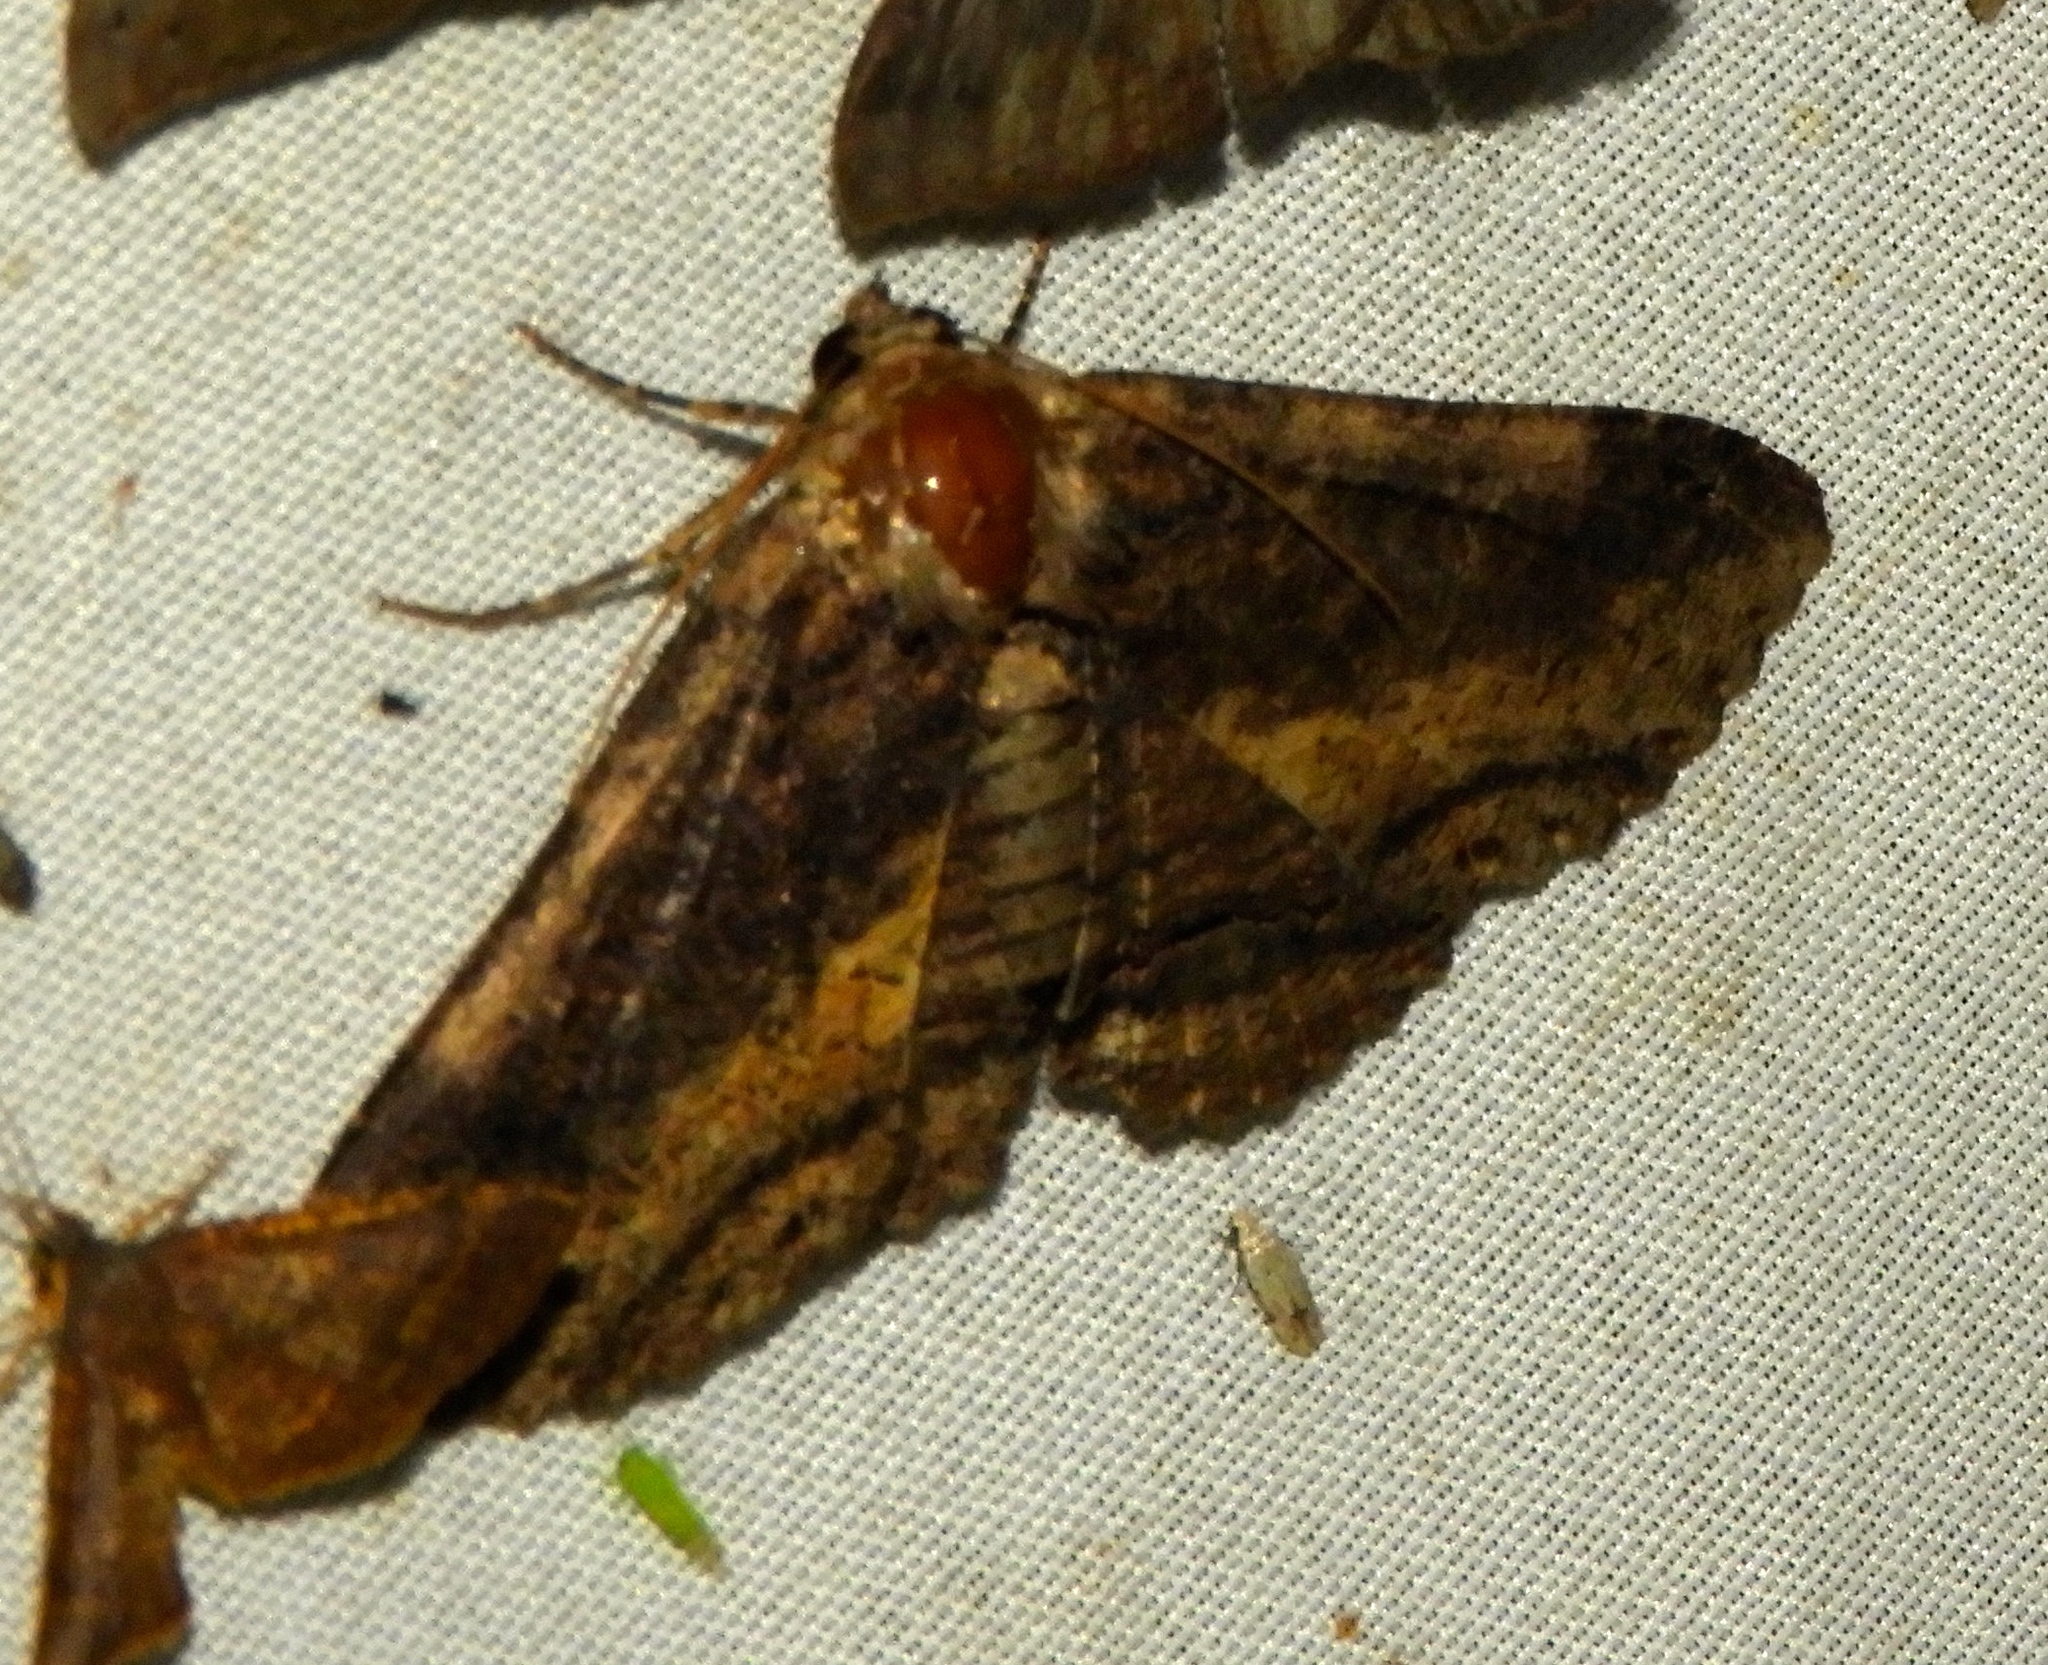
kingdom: Animalia
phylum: Arthropoda
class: Insecta
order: Lepidoptera
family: Erebidae
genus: Zale
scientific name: Zale
